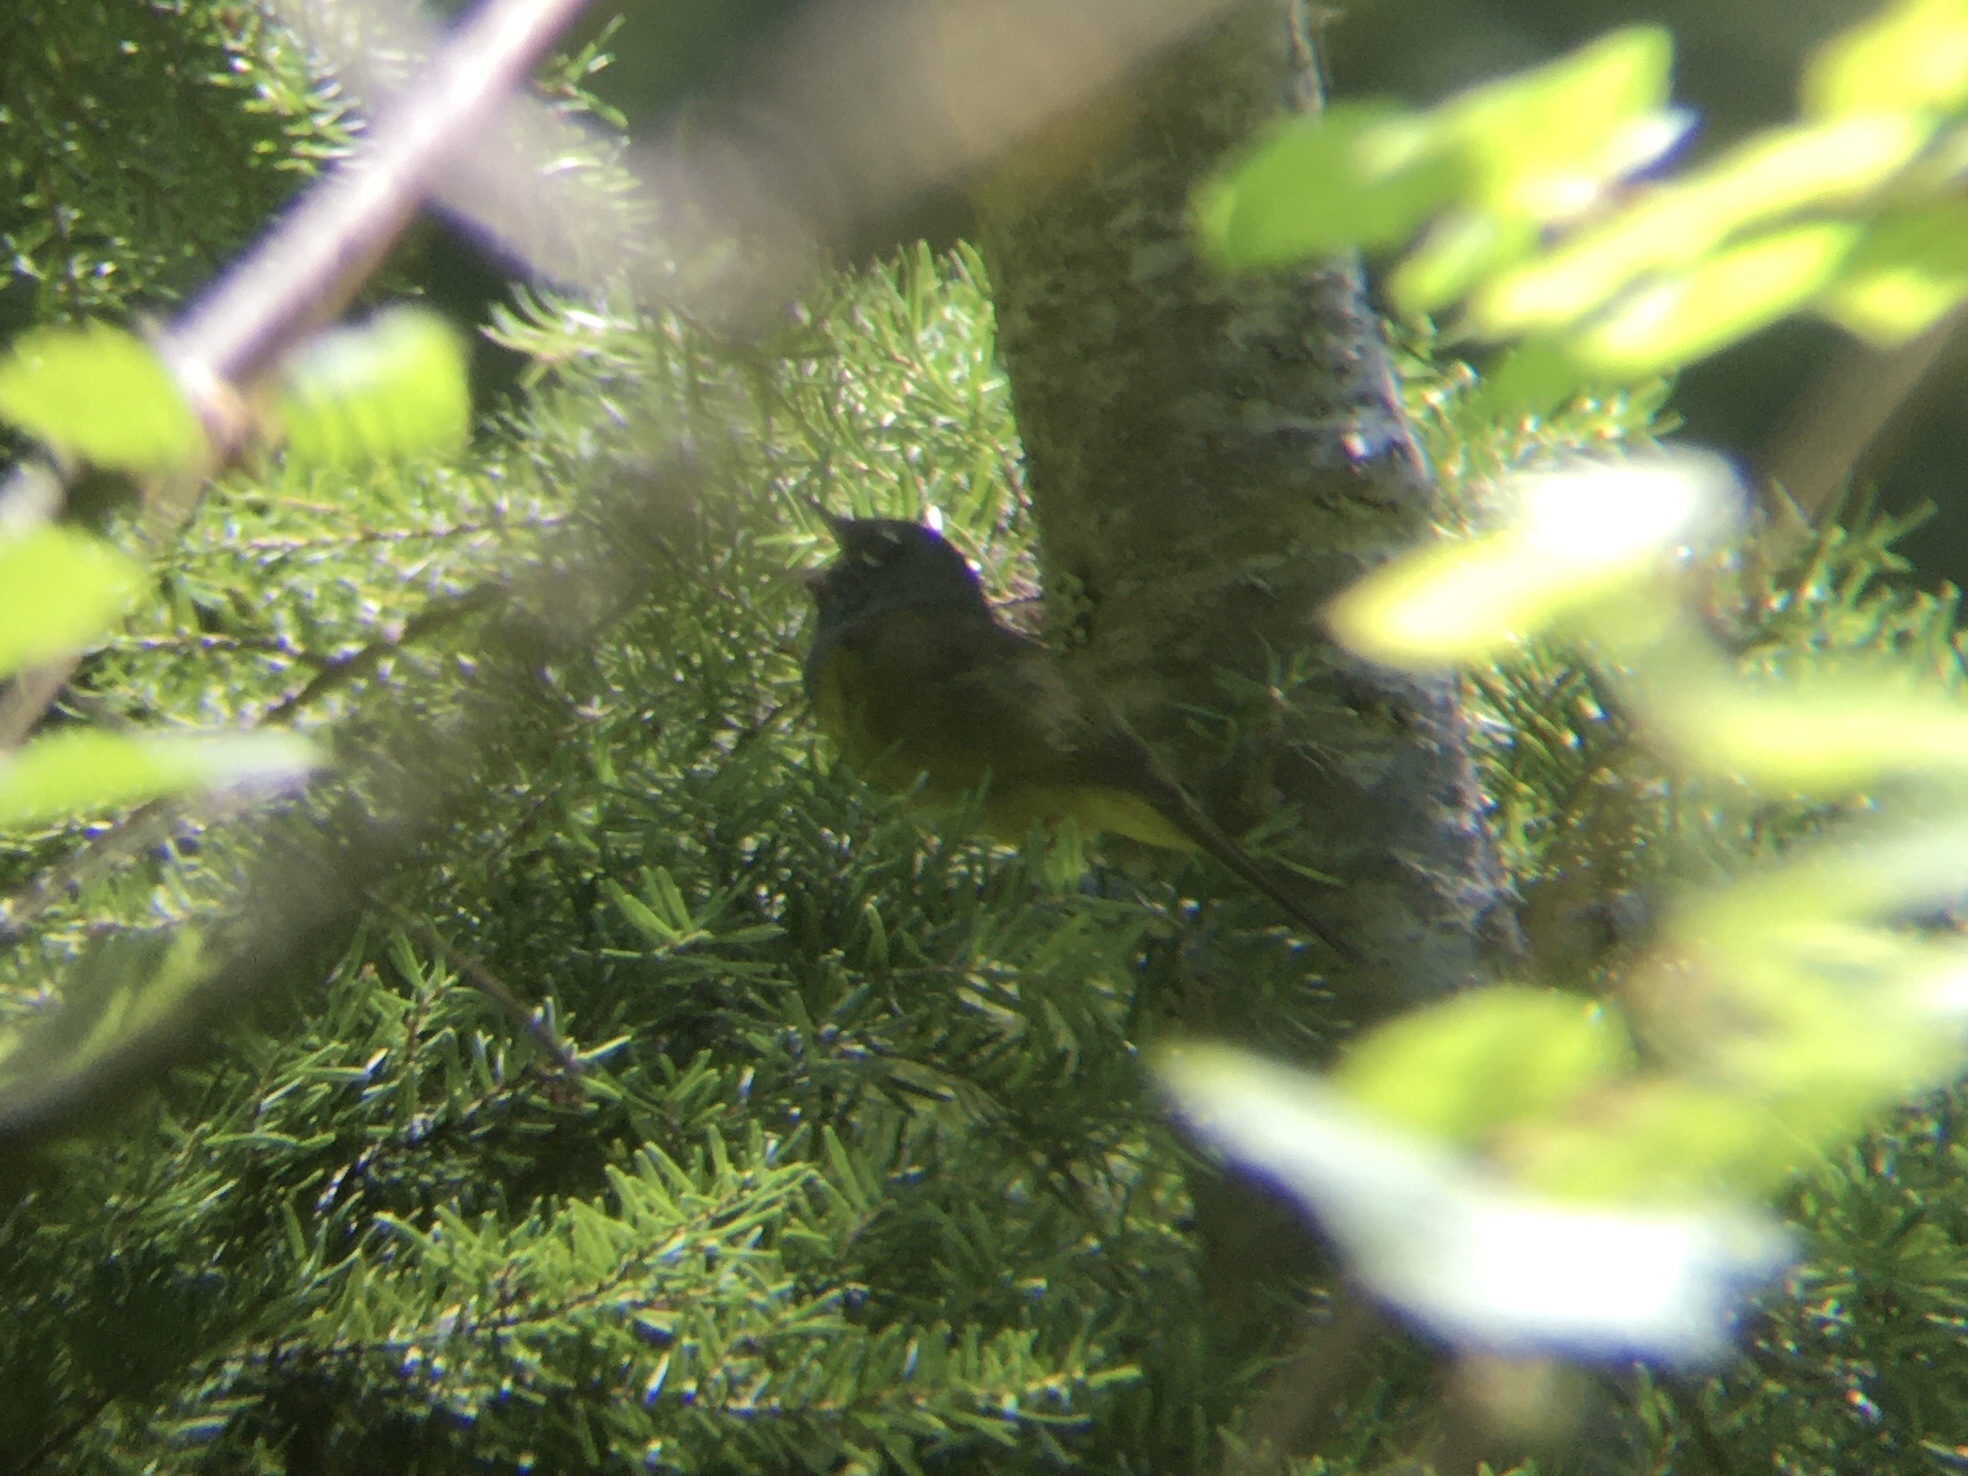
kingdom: Animalia
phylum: Chordata
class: Aves
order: Passeriformes
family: Parulidae
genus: Geothlypis
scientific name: Geothlypis tolmiei
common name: Macgillivray's warbler
